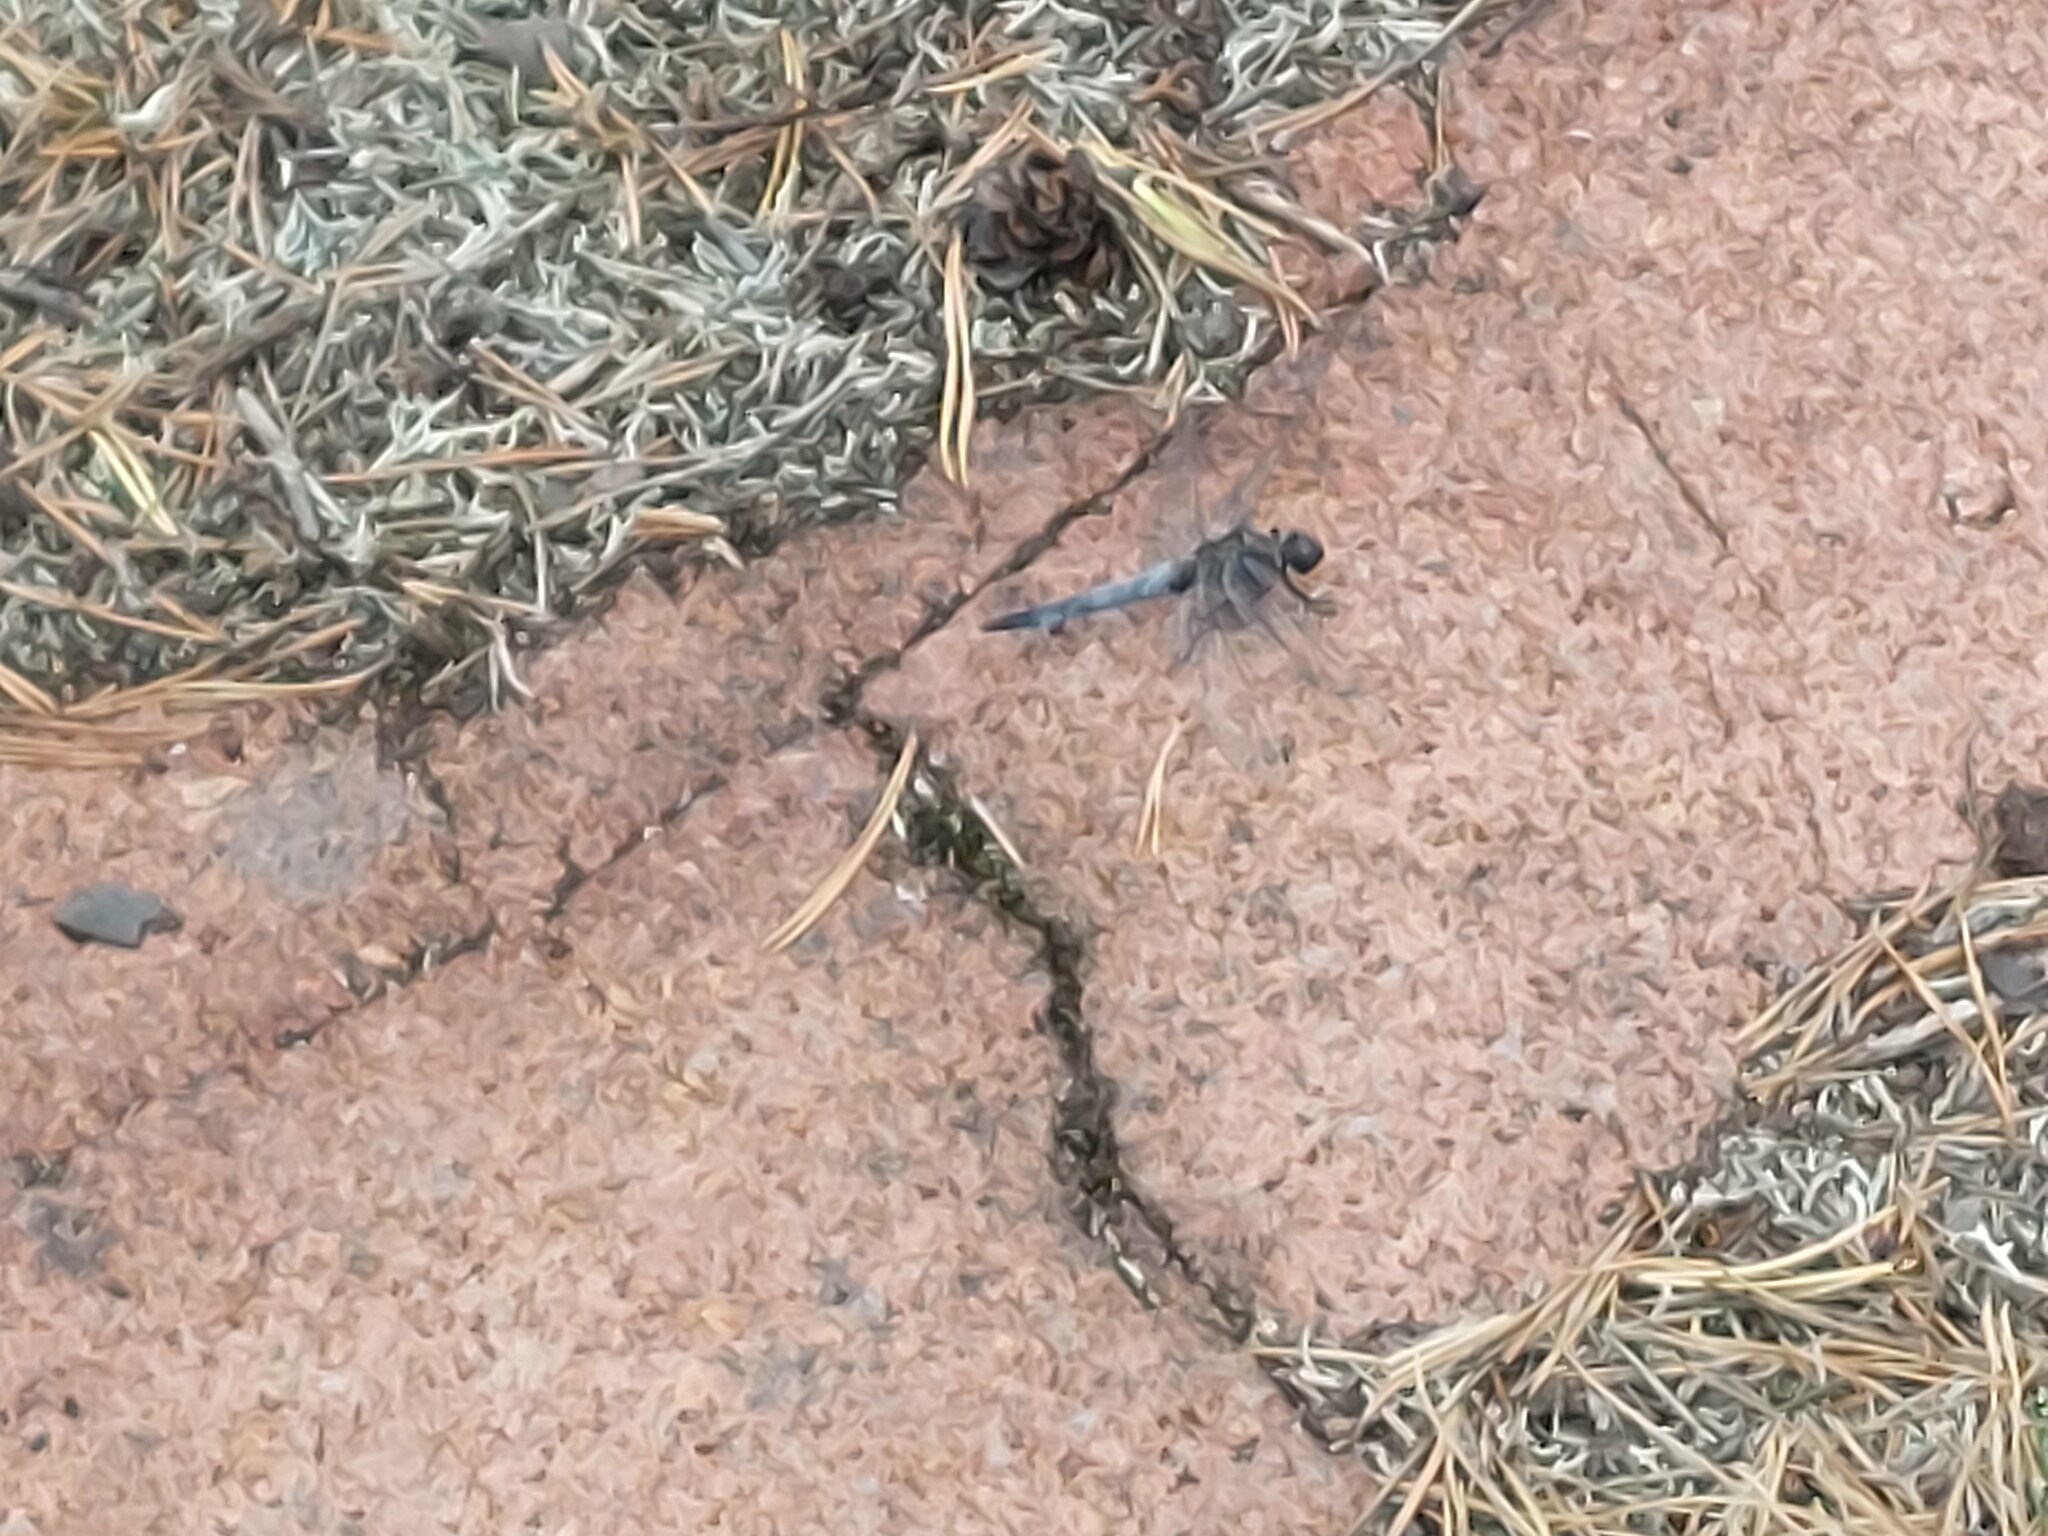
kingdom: Animalia
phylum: Arthropoda
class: Insecta
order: Odonata
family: Libellulidae
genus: Orthetrum
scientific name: Orthetrum cancellatum
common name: Black-tailed skimmer
